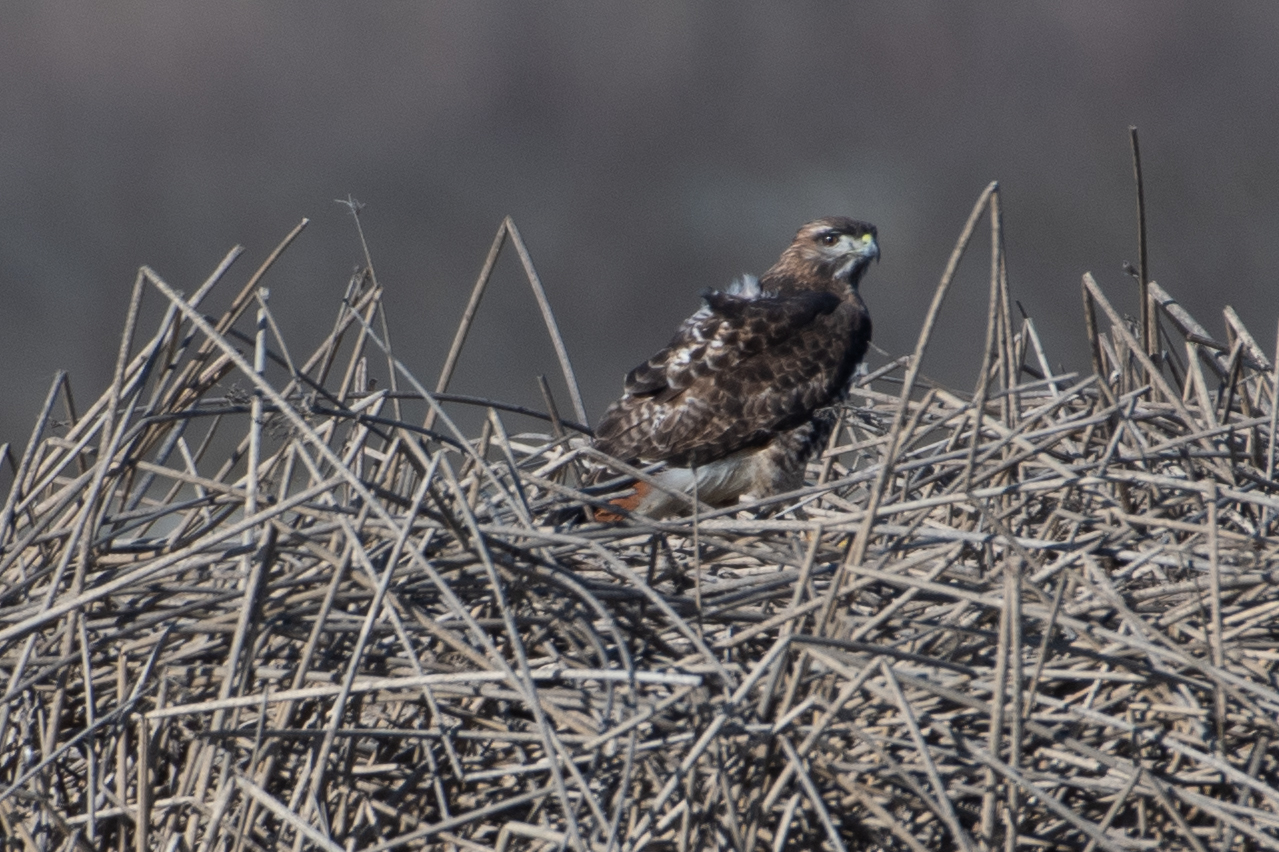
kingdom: Animalia
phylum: Chordata
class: Aves
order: Accipitriformes
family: Accipitridae
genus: Buteo
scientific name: Buteo jamaicensis
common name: Red-tailed hawk
